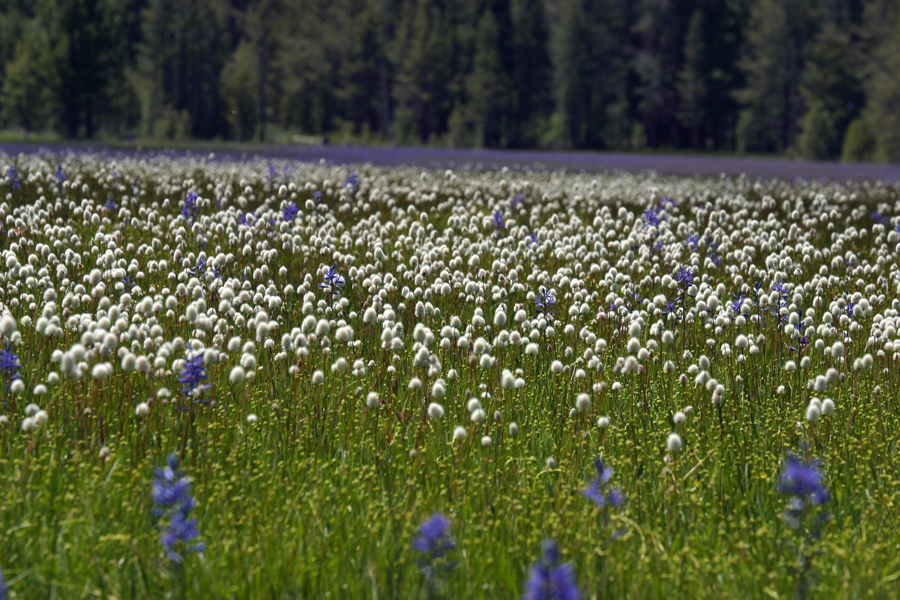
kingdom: Plantae
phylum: Tracheophyta
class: Magnoliopsida
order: Caryophyllales
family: Polygonaceae
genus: Bistorta
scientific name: Bistorta bistortoides
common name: American bistort
